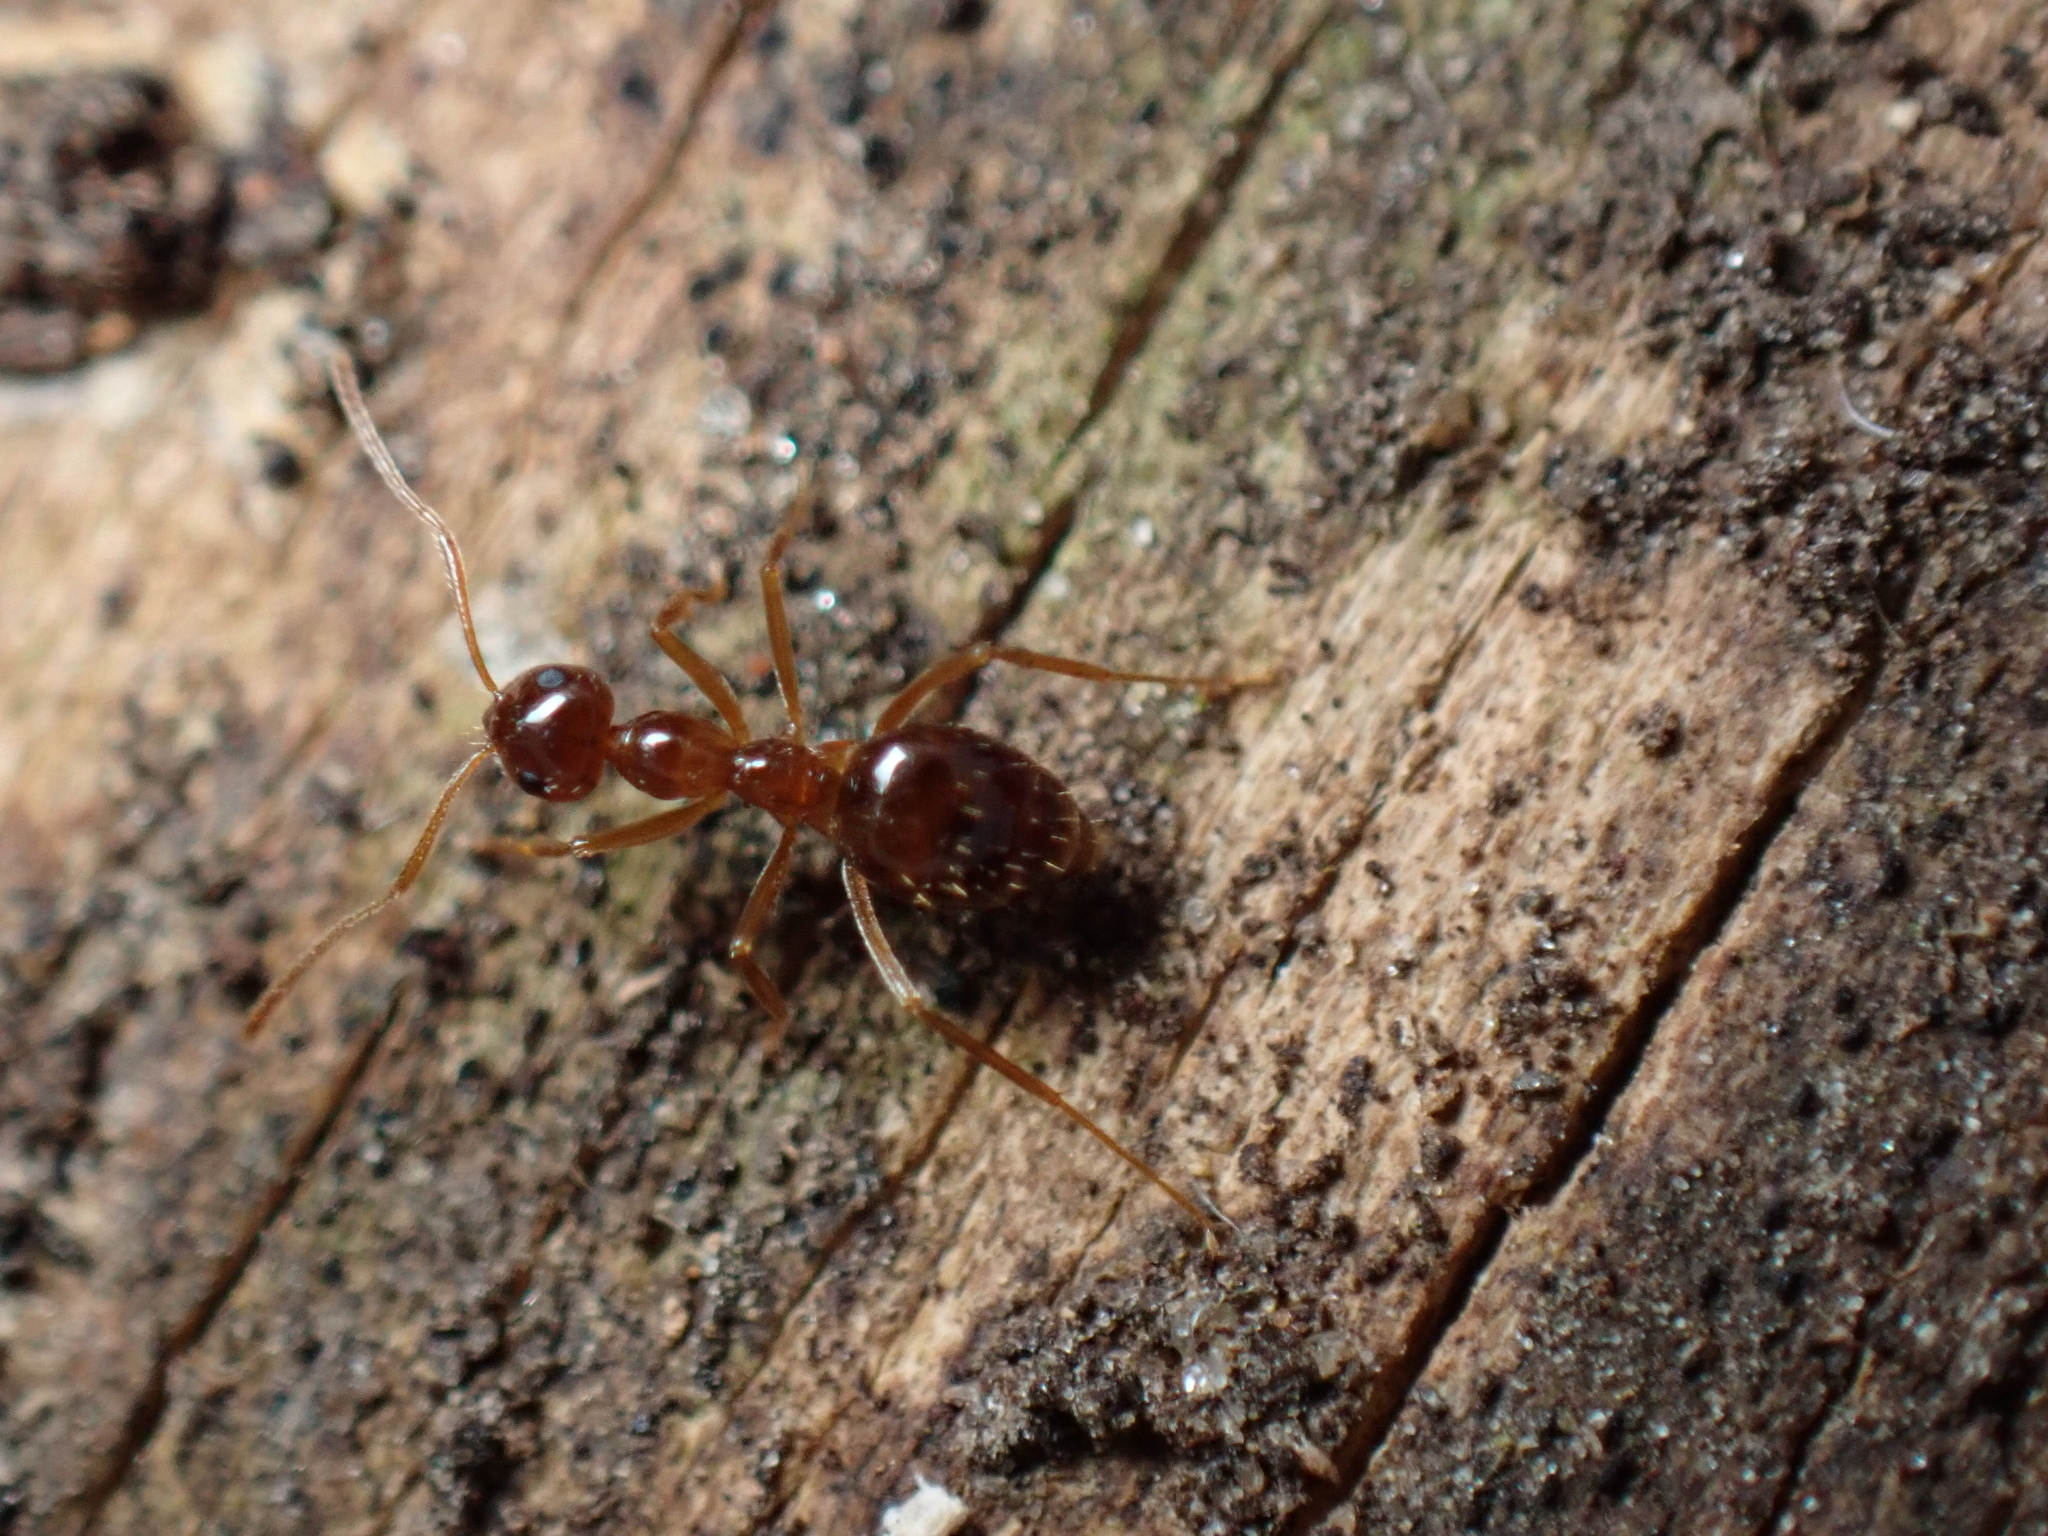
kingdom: Animalia
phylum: Arthropoda
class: Insecta
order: Hymenoptera
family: Formicidae
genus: Prenolepis
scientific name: Prenolepis imparis
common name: Small honey ant
